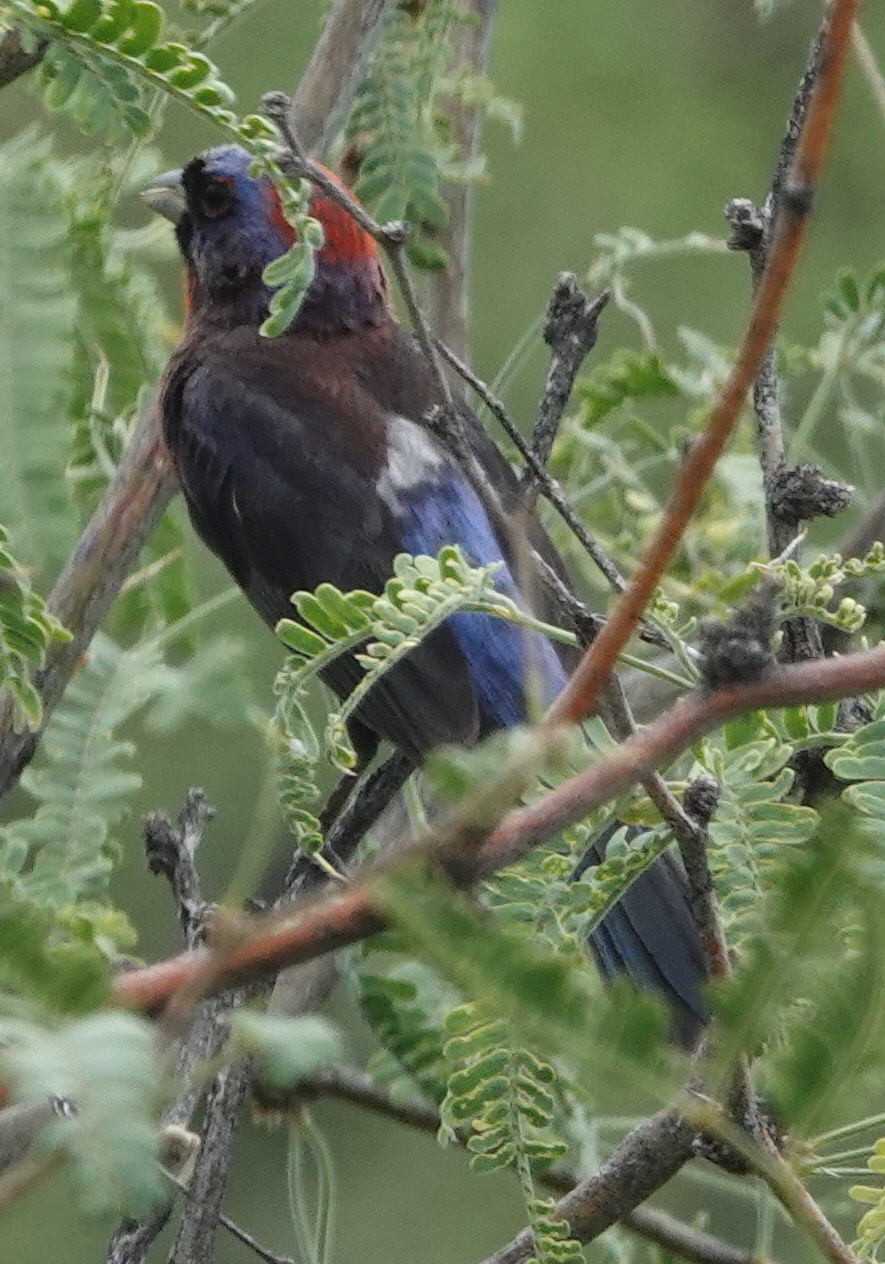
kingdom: Animalia
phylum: Chordata
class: Aves
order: Passeriformes
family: Cardinalidae
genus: Passerina
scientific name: Passerina versicolor
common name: Varied bunting
